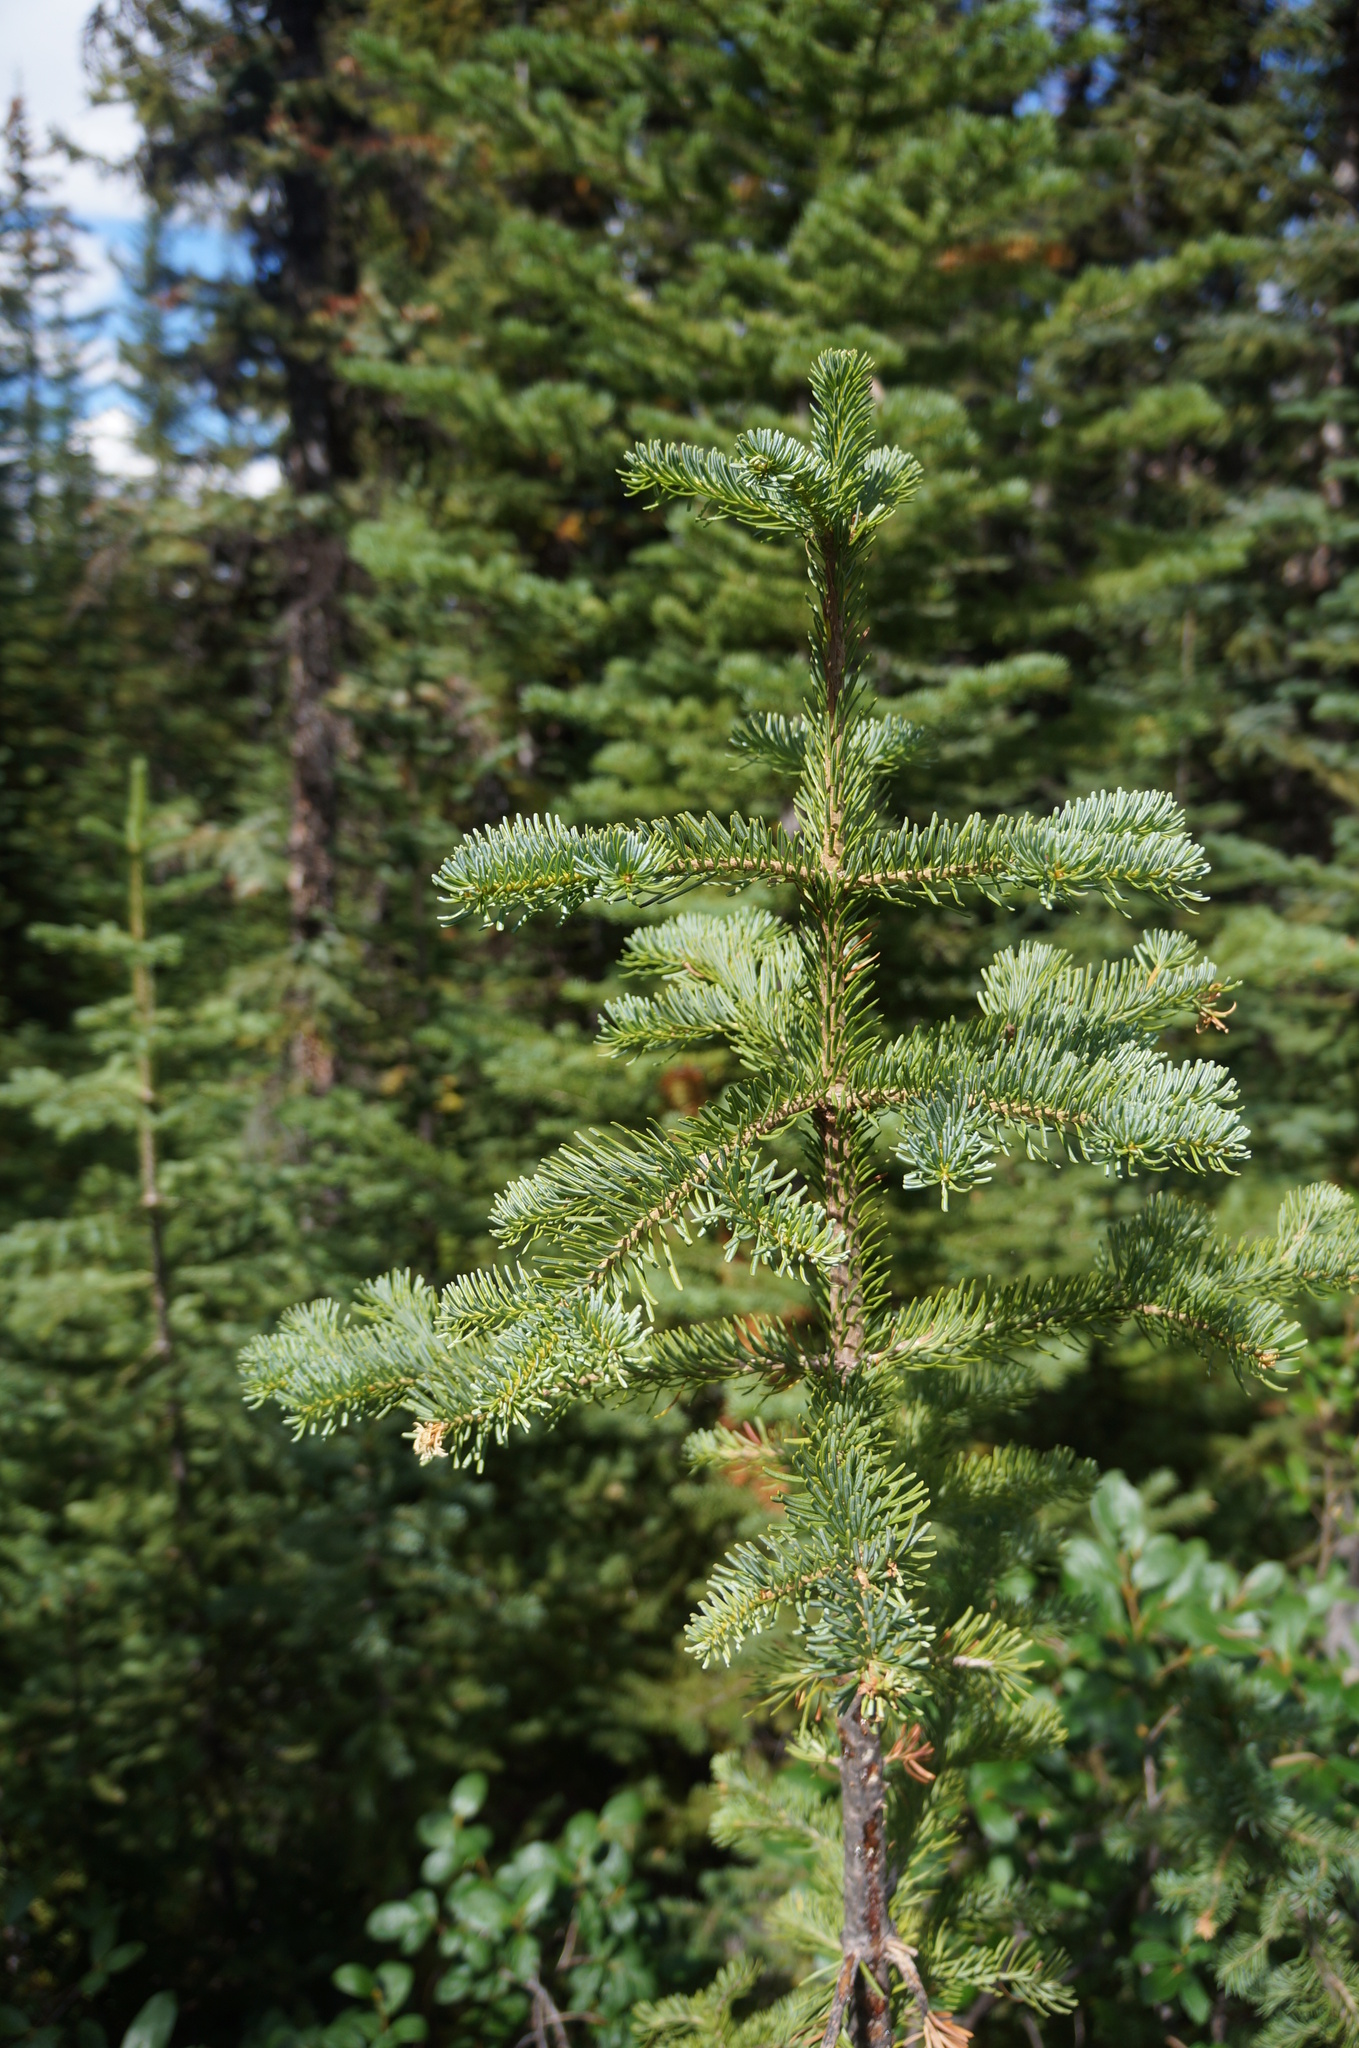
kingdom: Plantae
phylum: Tracheophyta
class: Pinopsida
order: Pinales
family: Pinaceae
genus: Abies
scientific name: Abies lasiocarpa
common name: Subalpine fir
